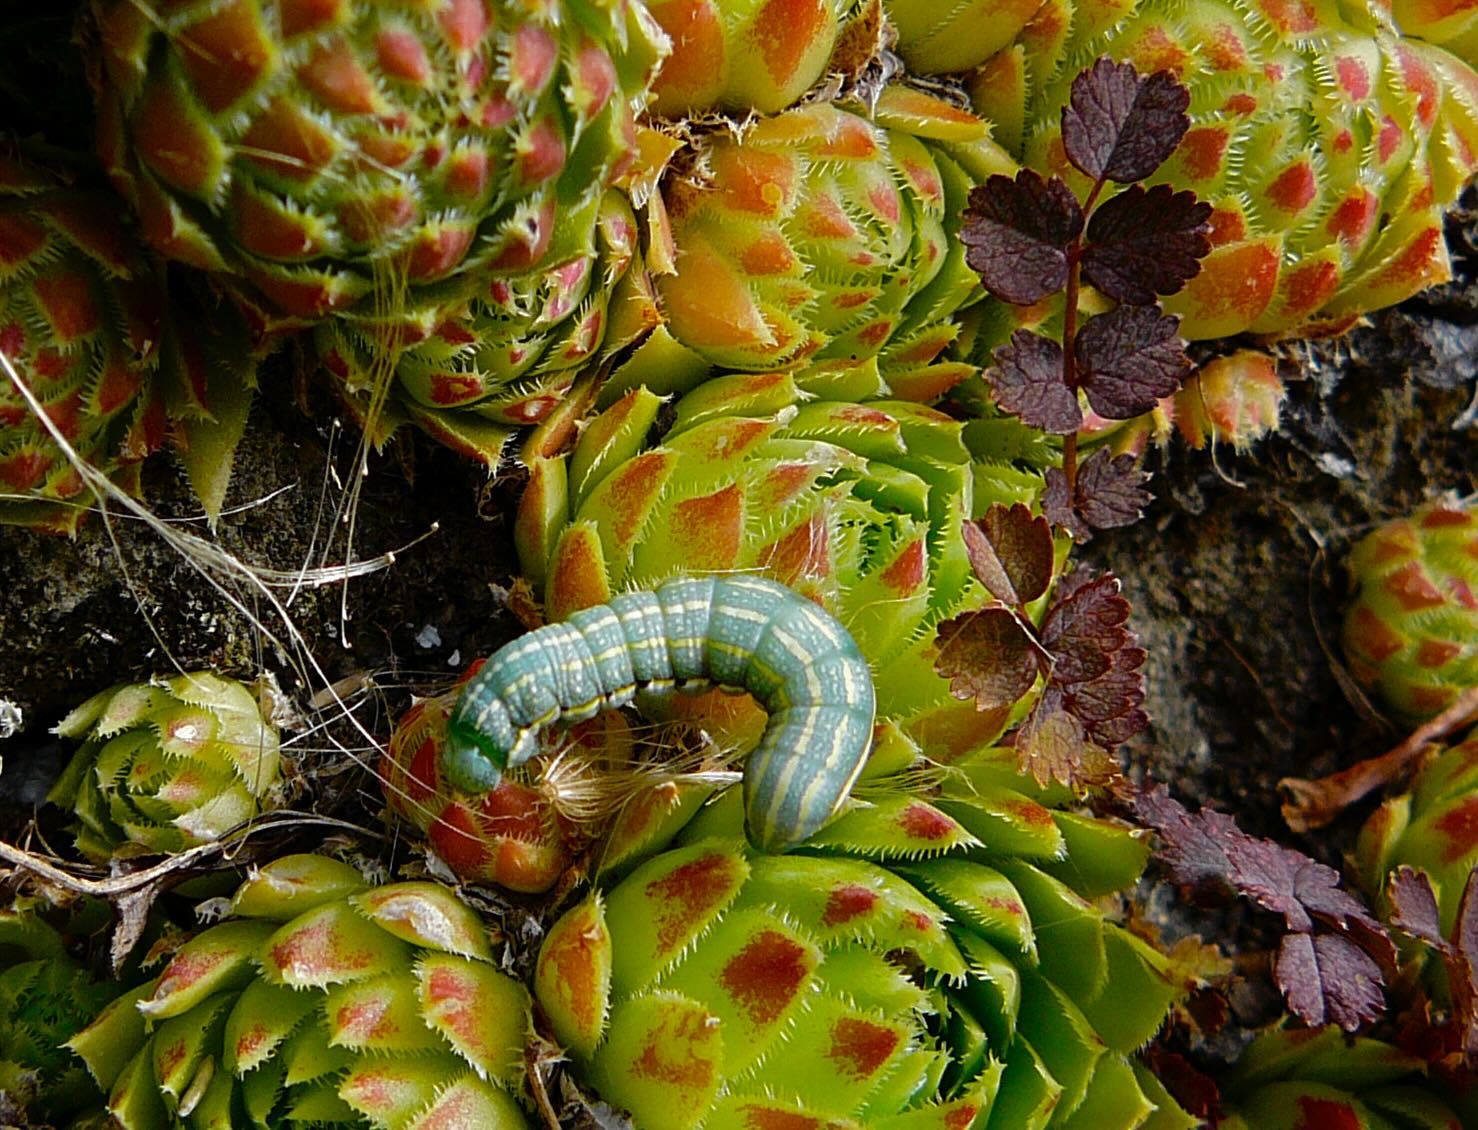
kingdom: Animalia
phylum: Arthropoda
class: Insecta
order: Lepidoptera
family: Noctuidae
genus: Ichneutica
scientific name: Ichneutica
